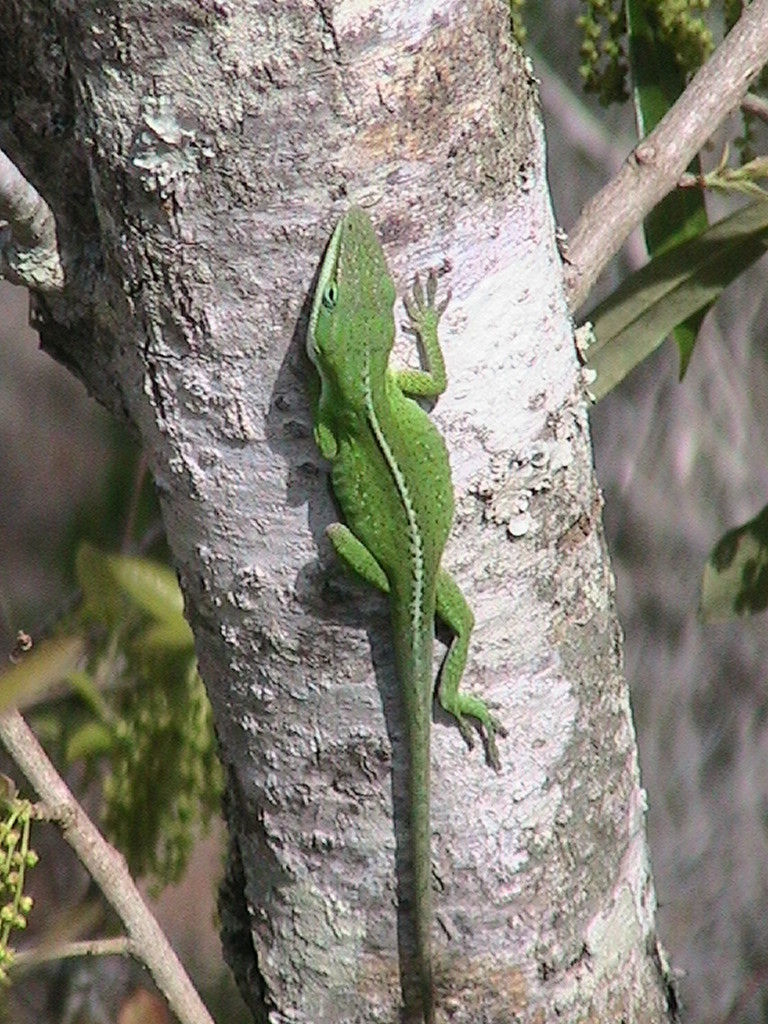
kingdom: Animalia
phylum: Chordata
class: Squamata
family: Dactyloidae
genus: Anolis
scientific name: Anolis carolinensis
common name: Green anole
